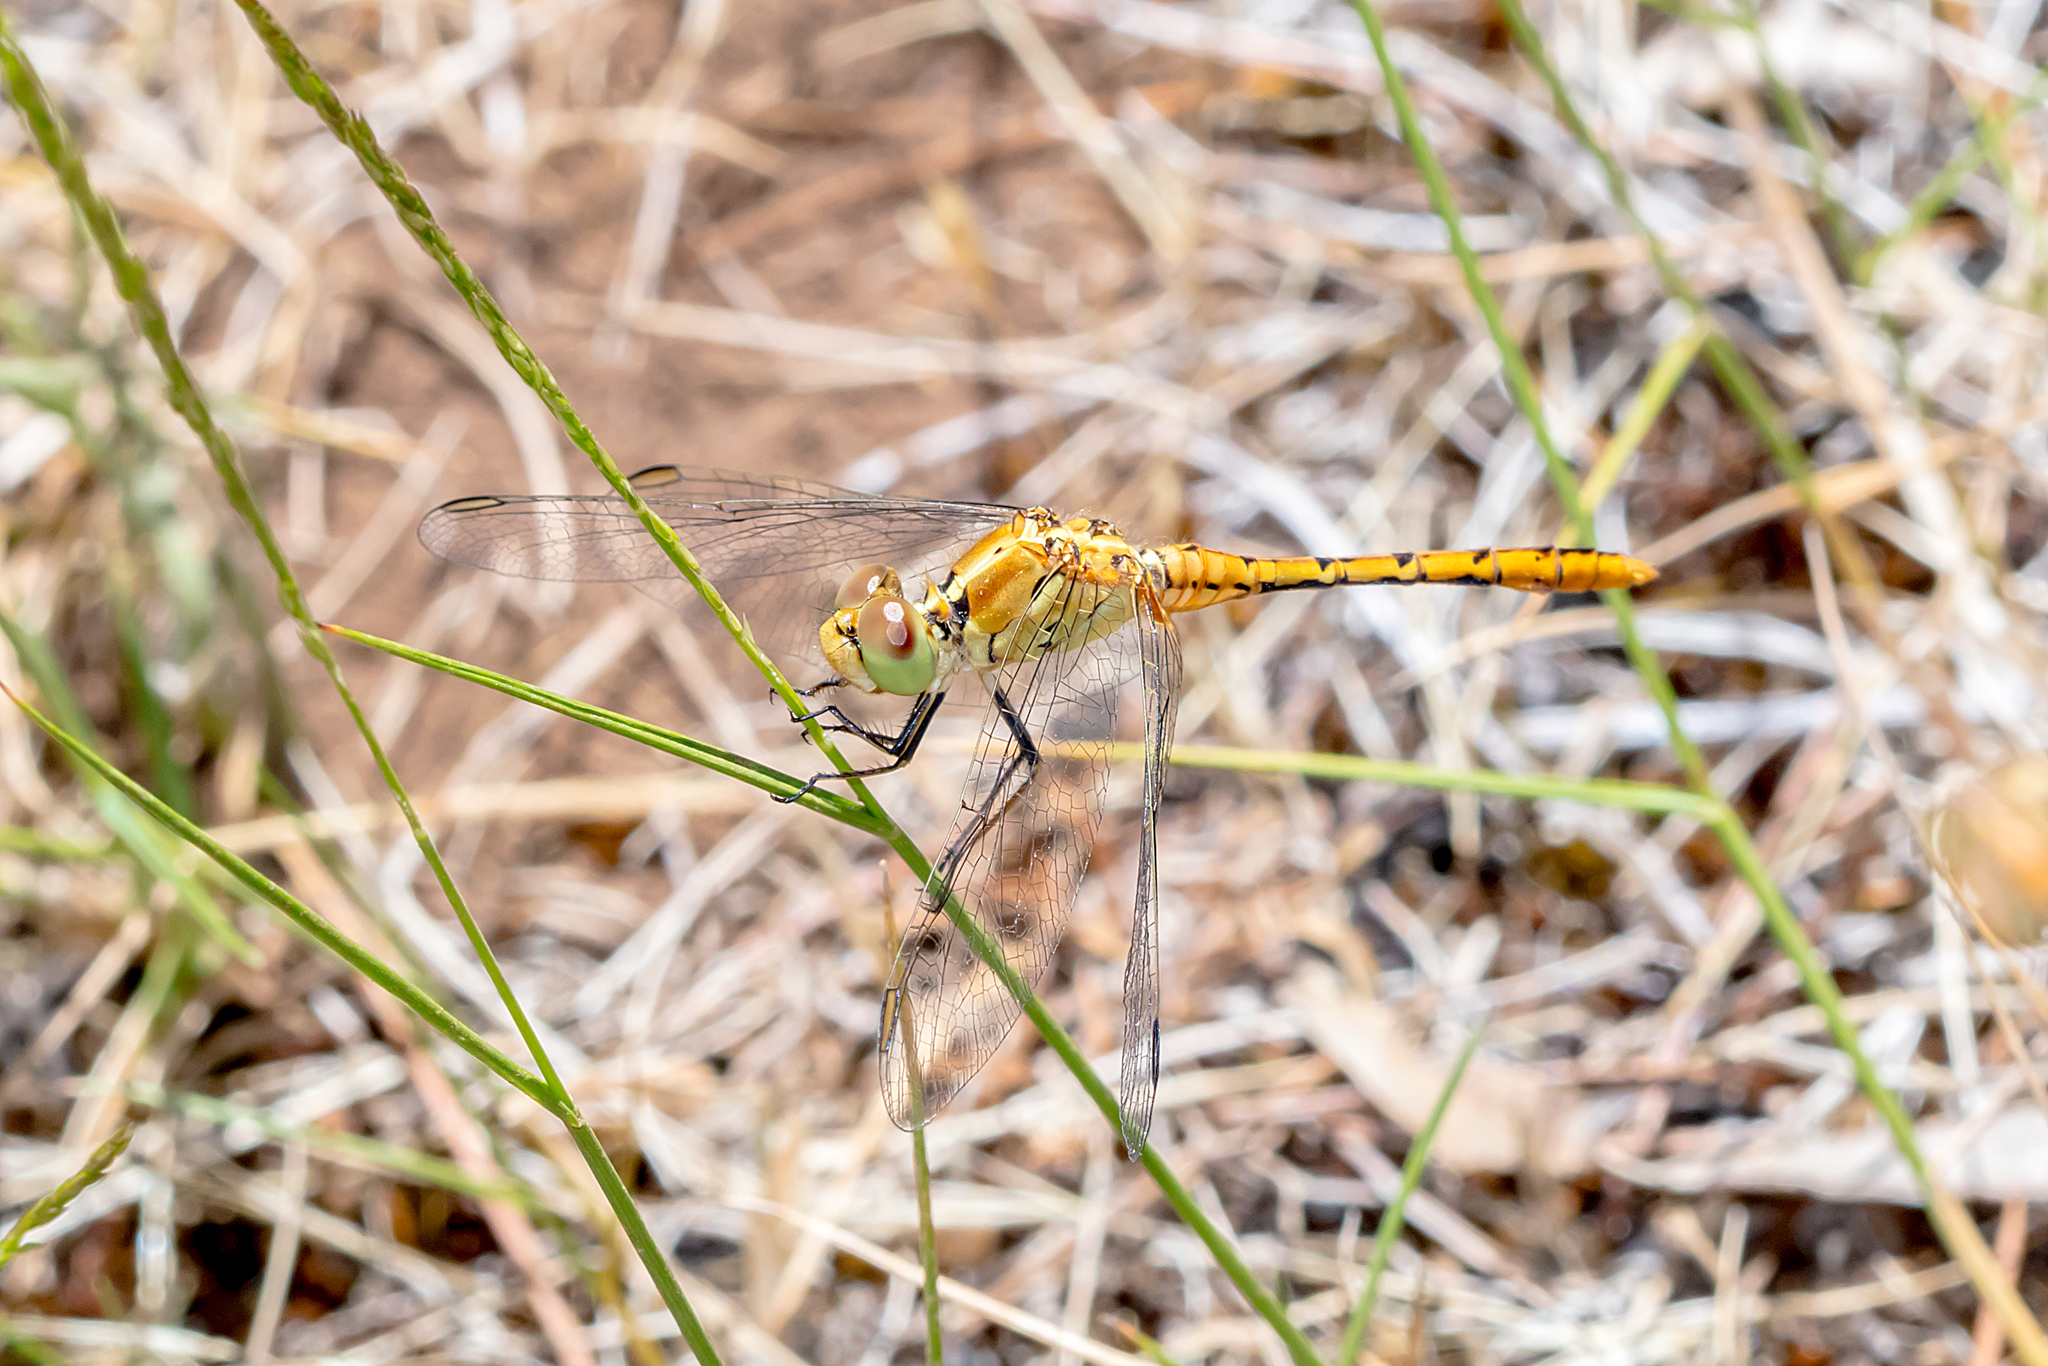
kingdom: Animalia
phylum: Arthropoda
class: Insecta
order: Odonata
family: Libellulidae
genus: Diplacodes
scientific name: Diplacodes bipunctata
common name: Red percher dragonfly
